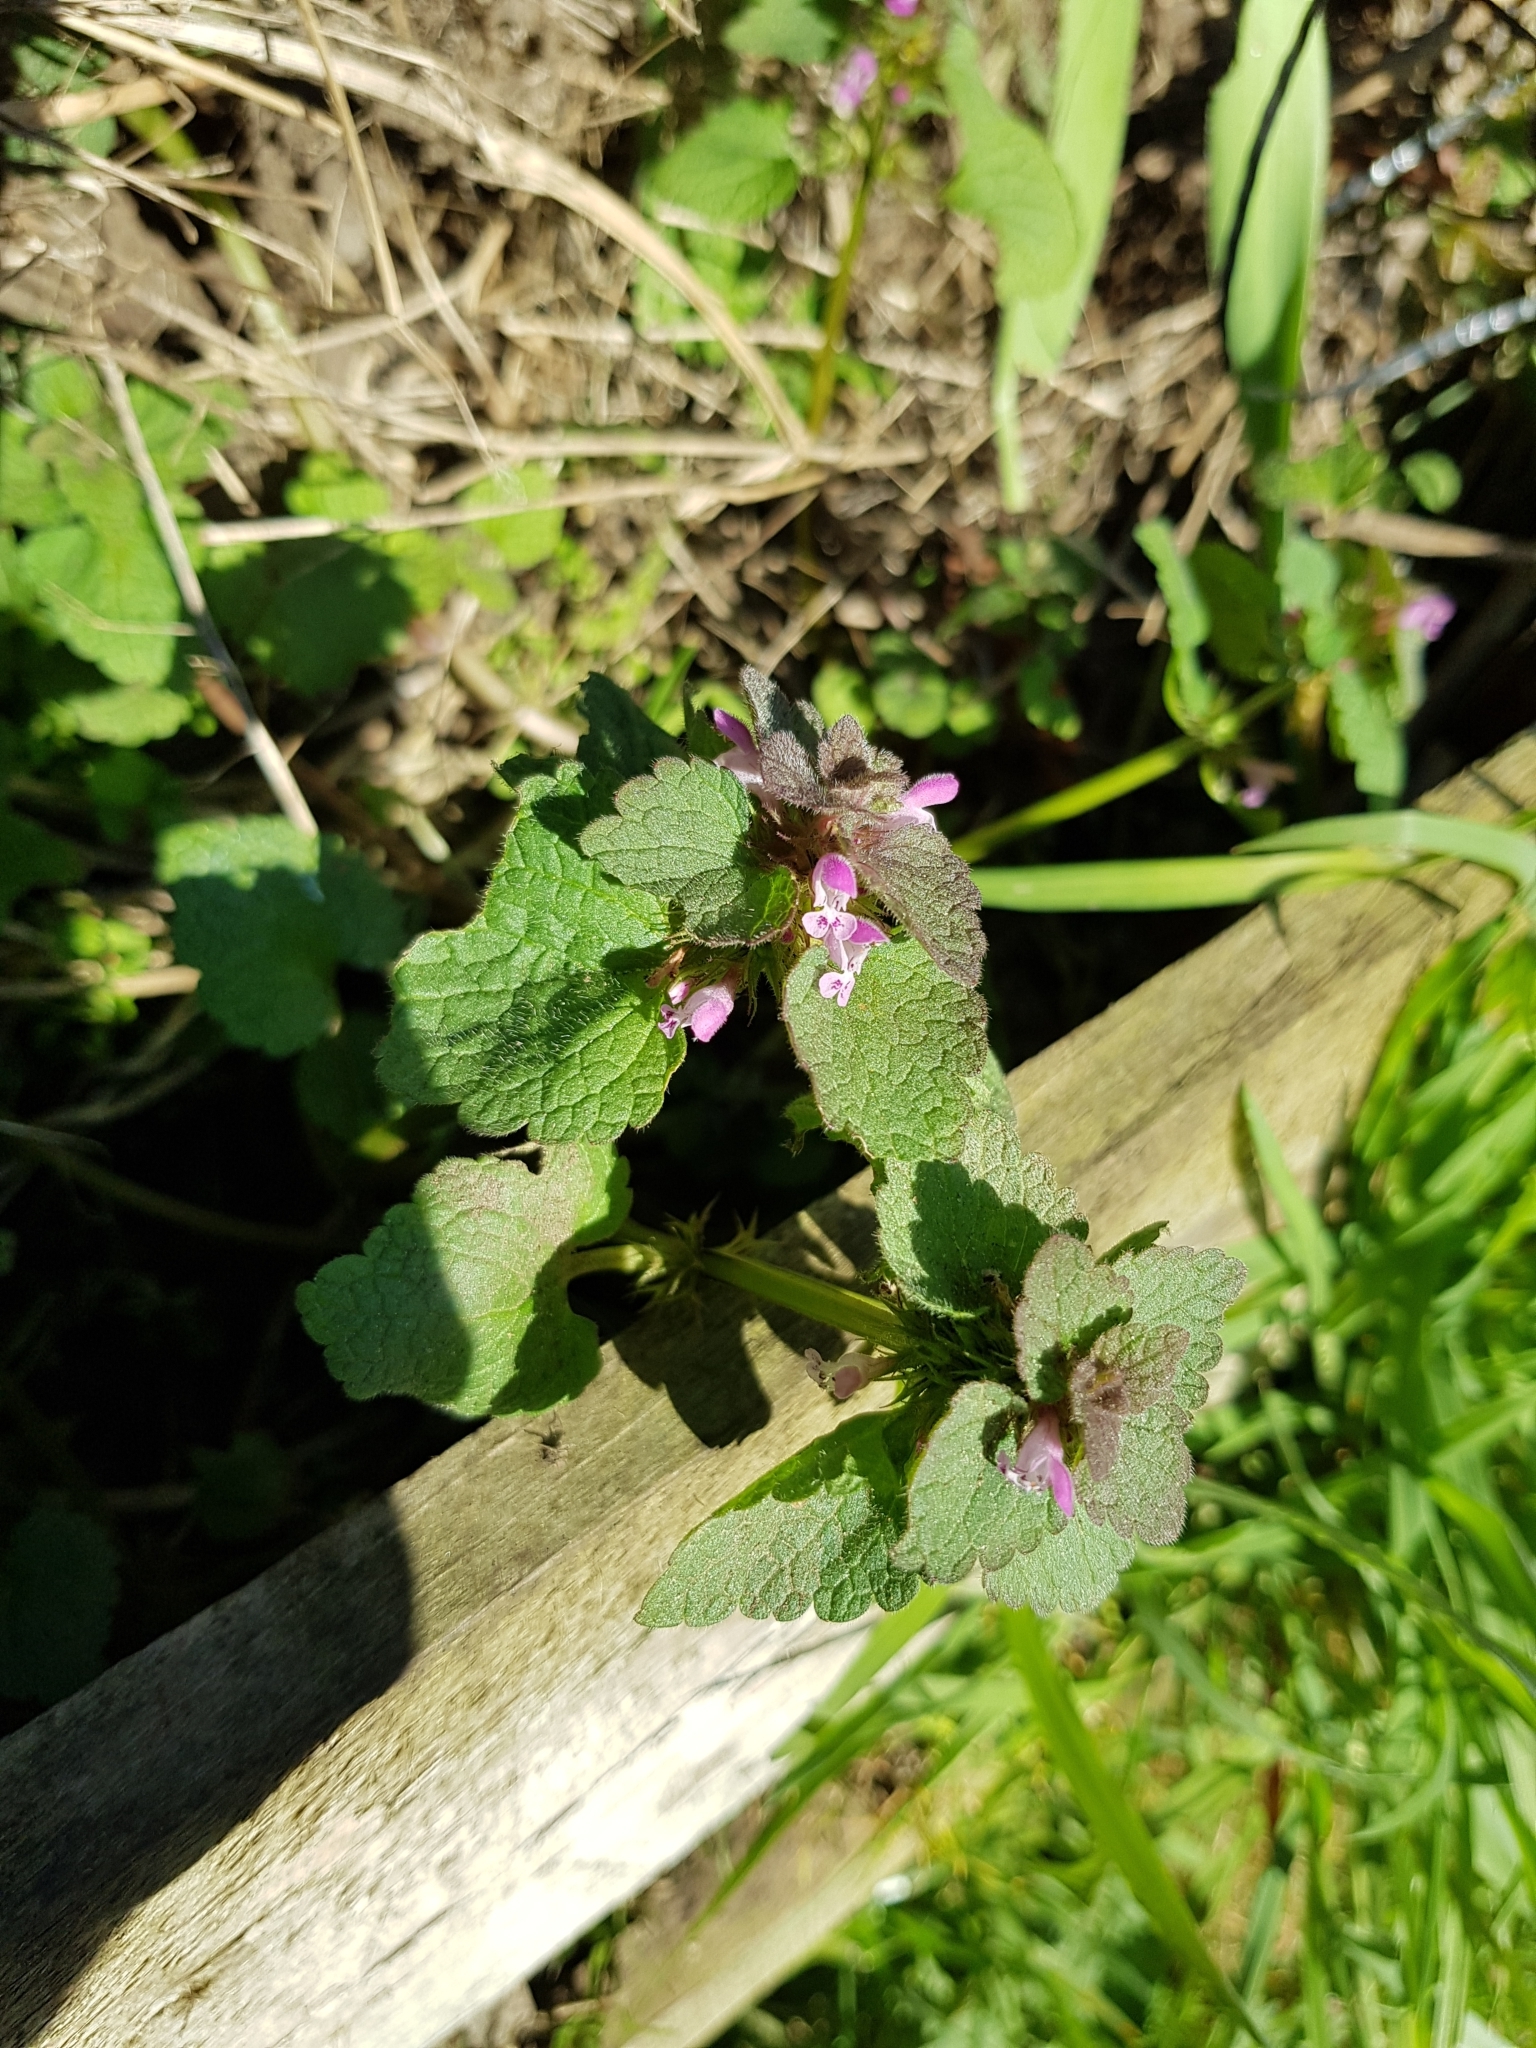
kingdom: Plantae
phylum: Tracheophyta
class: Magnoliopsida
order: Lamiales
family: Lamiaceae
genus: Lamium
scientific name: Lamium purpureum
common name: Red dead-nettle
